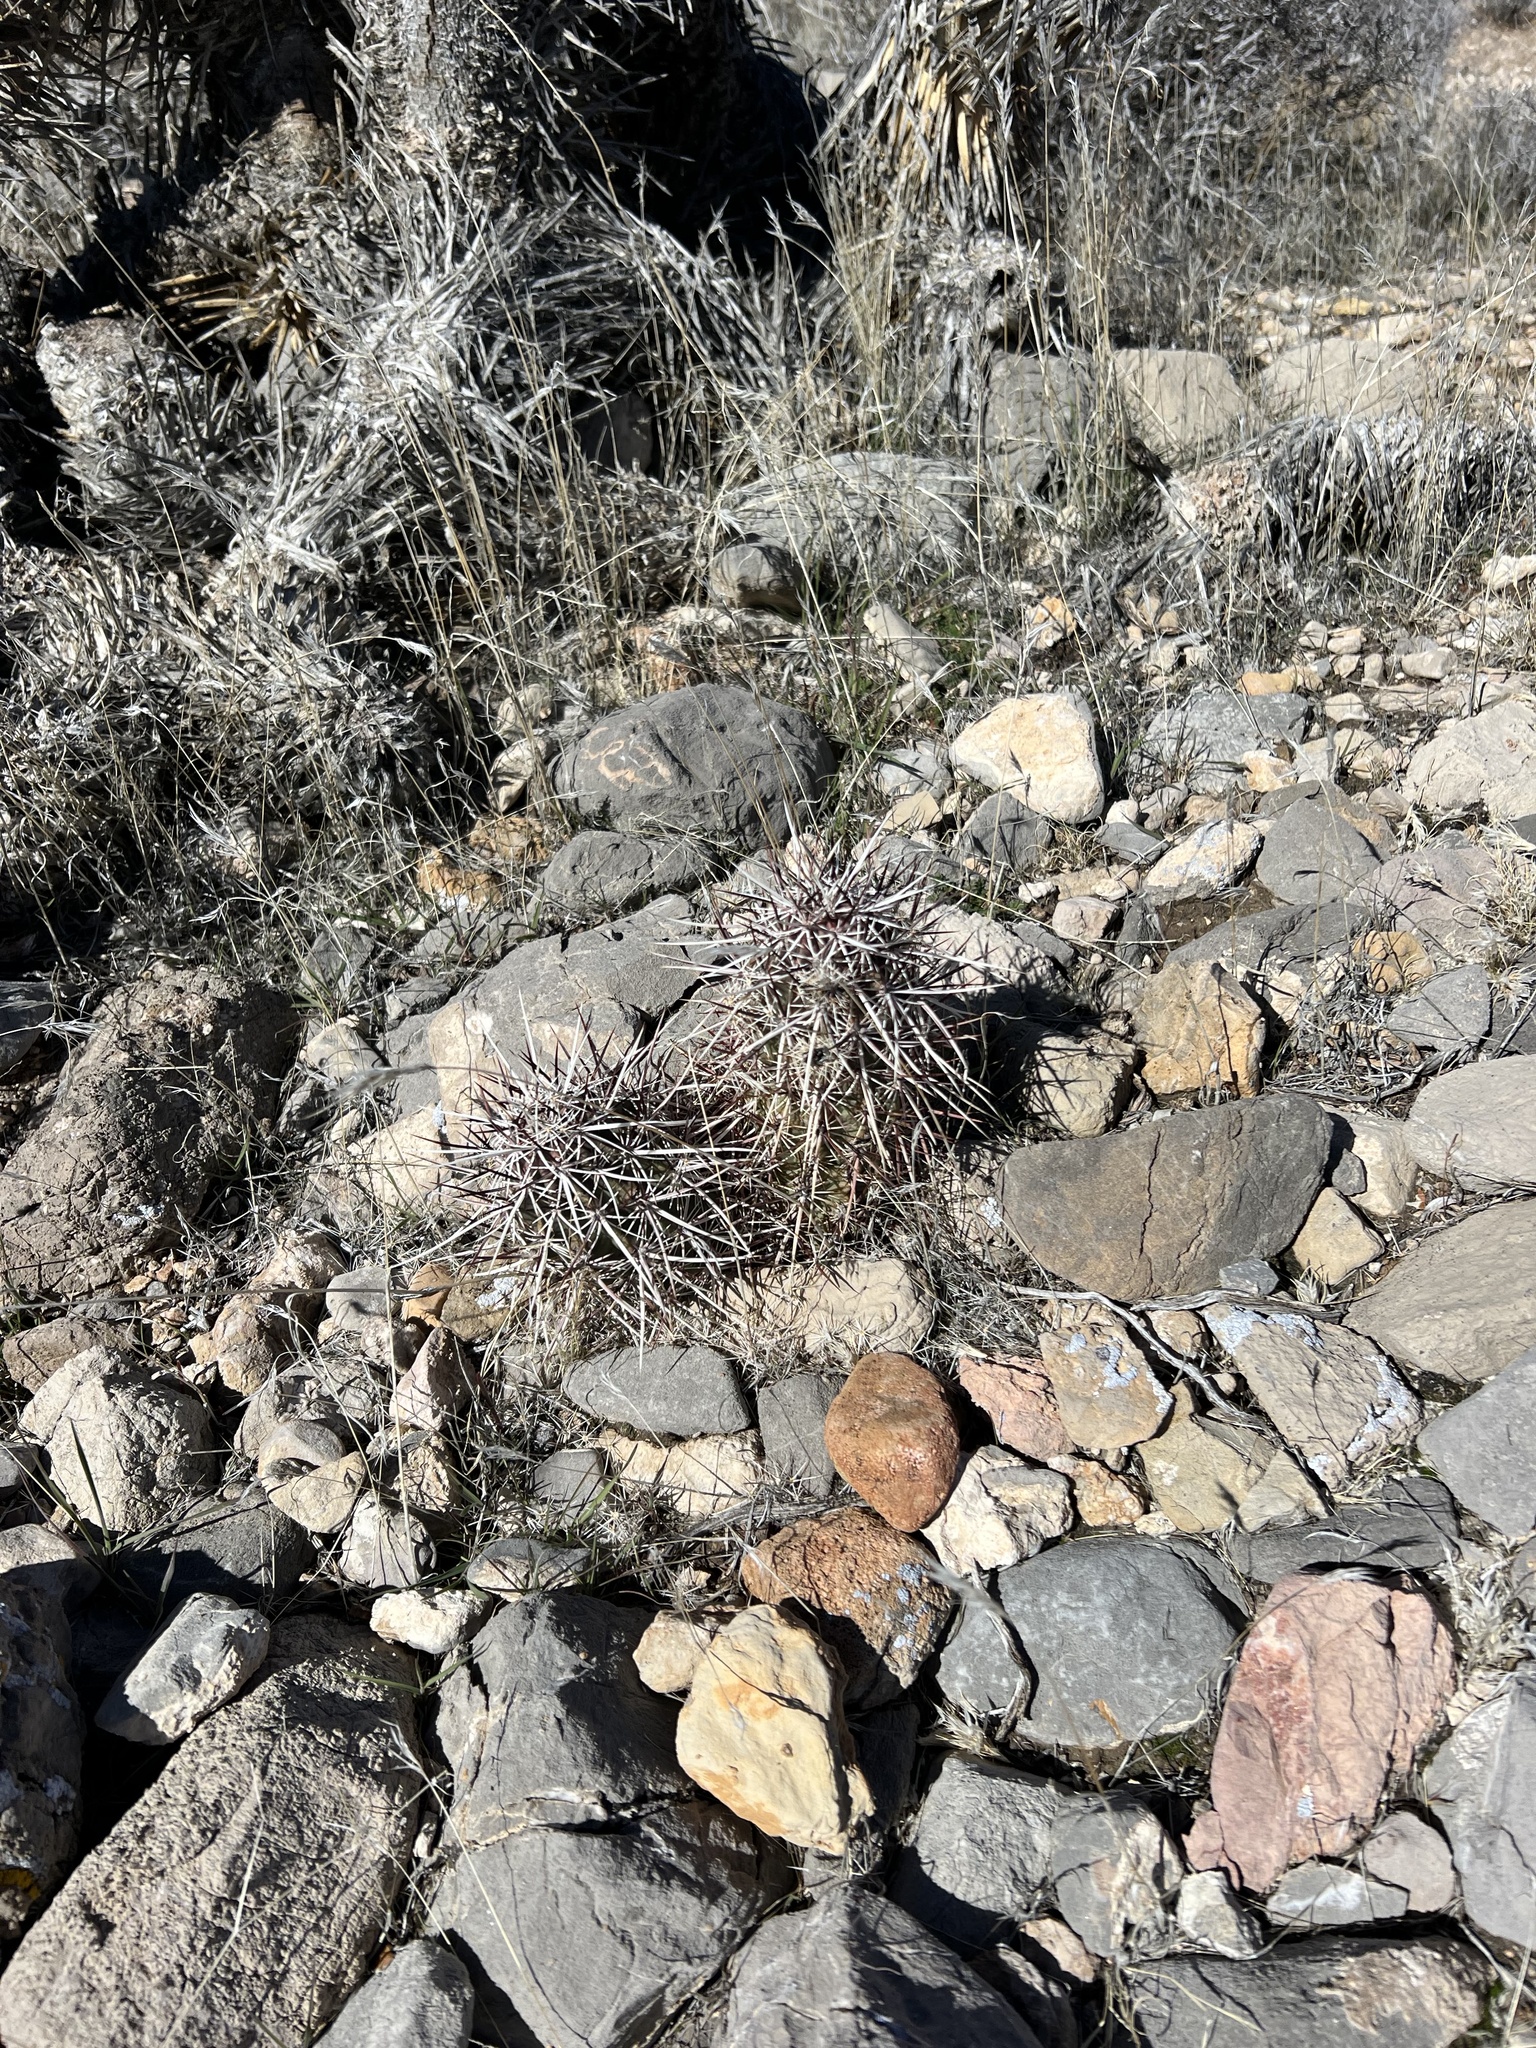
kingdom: Plantae
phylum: Tracheophyta
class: Magnoliopsida
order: Caryophyllales
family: Cactaceae
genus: Echinocereus
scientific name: Echinocereus engelmannii
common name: Engelmann's hedgehog cactus
